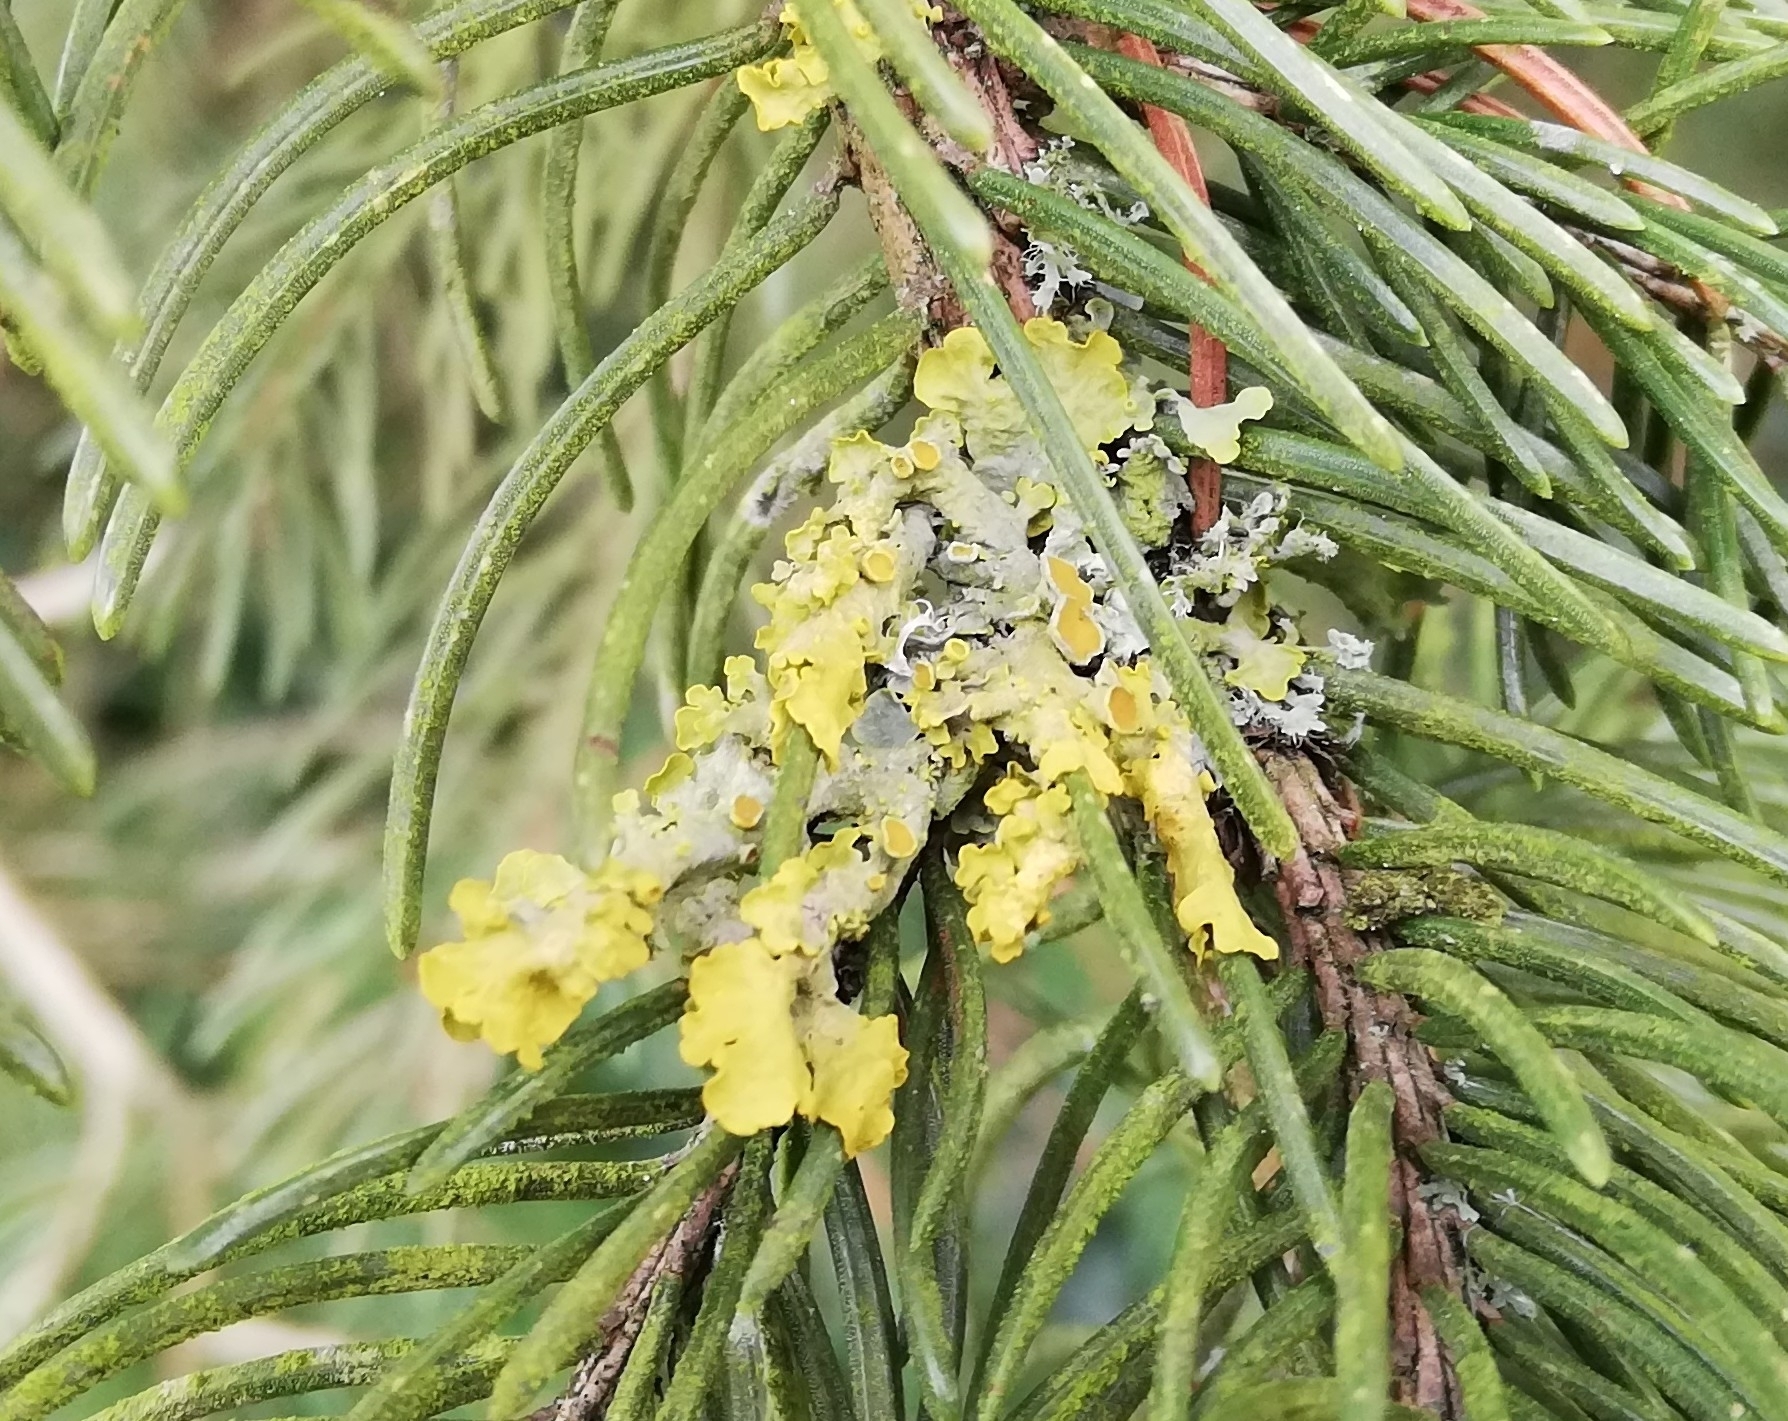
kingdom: Fungi
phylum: Ascomycota
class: Lecanoromycetes
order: Teloschistales
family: Teloschistaceae
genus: Xanthoria
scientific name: Xanthoria parietina
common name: Common orange lichen
